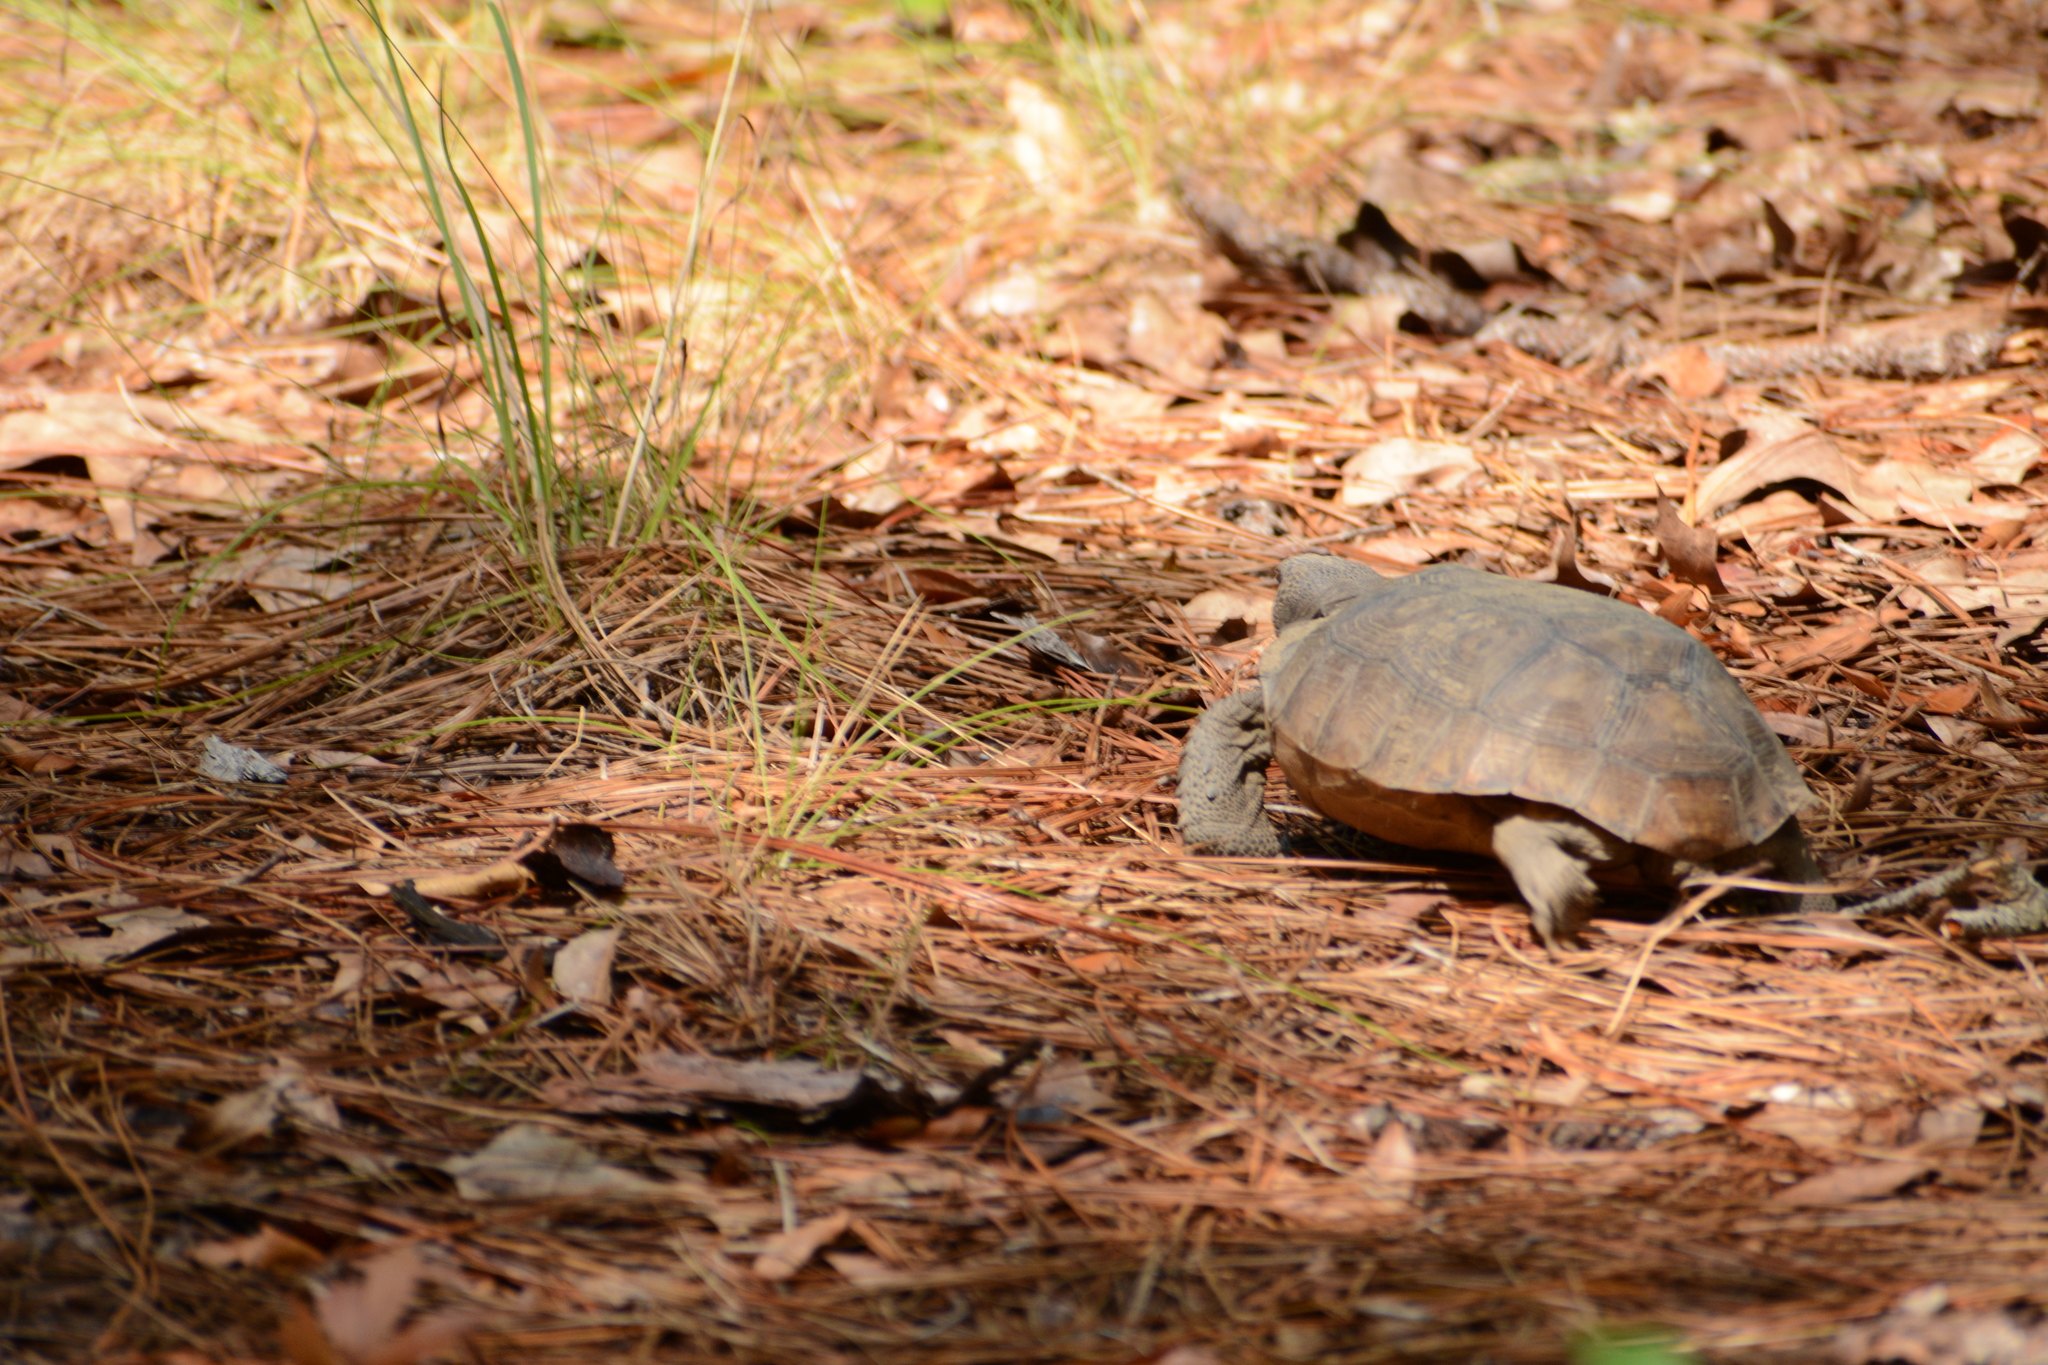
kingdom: Animalia
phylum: Chordata
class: Testudines
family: Testudinidae
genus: Gopherus
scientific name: Gopherus polyphemus
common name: Florida gopher tortoise
